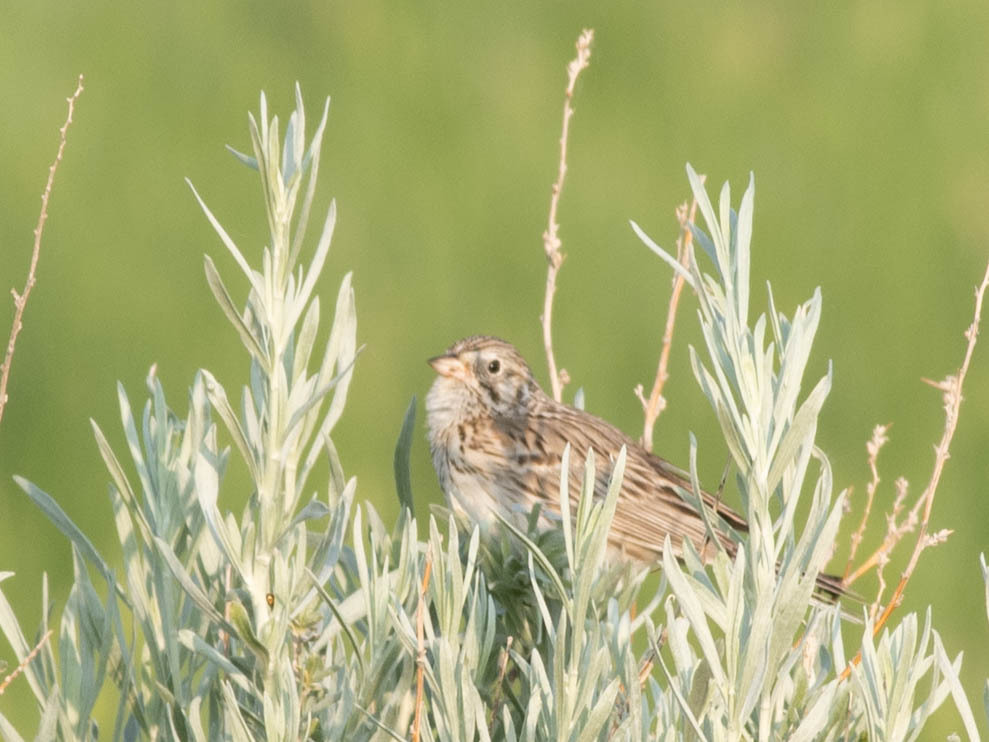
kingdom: Animalia
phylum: Chordata
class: Aves
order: Passeriformes
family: Passerellidae
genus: Pooecetes
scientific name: Pooecetes gramineus
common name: Vesper sparrow
